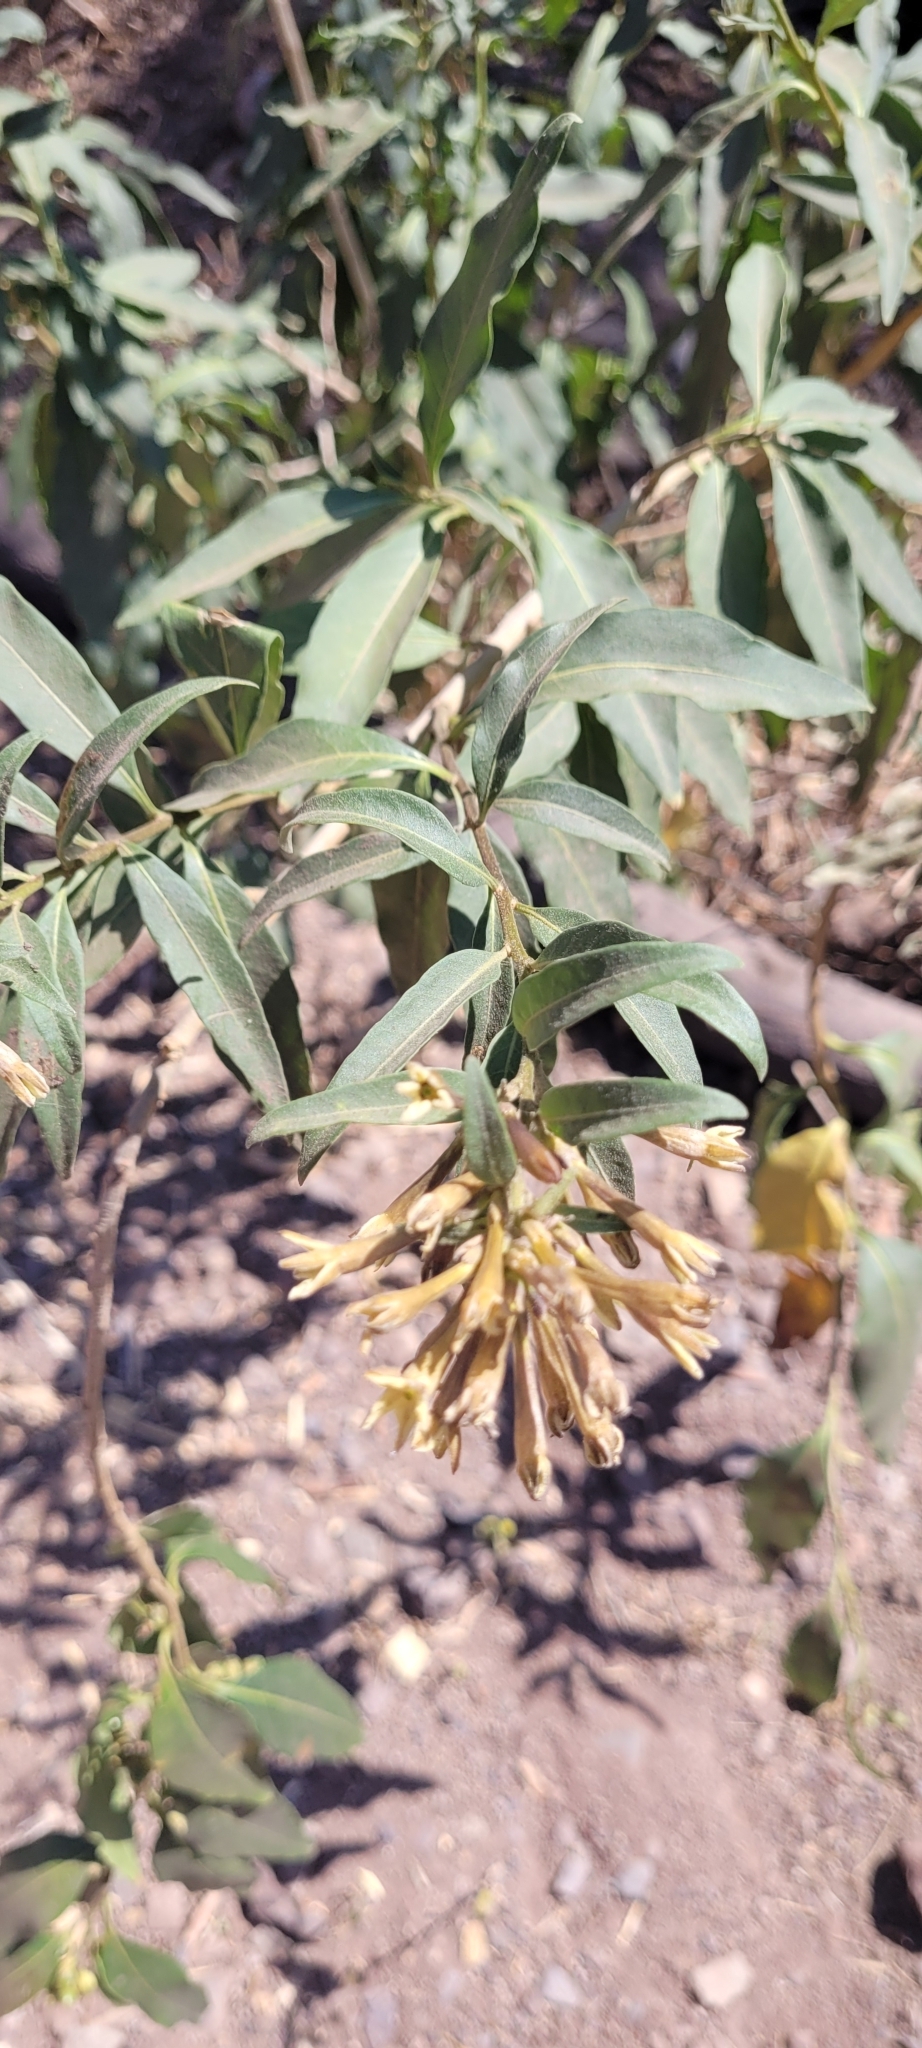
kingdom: Plantae
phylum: Tracheophyta
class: Magnoliopsida
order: Solanales
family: Solanaceae
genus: Cestrum
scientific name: Cestrum parqui
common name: Chilean cestrum
